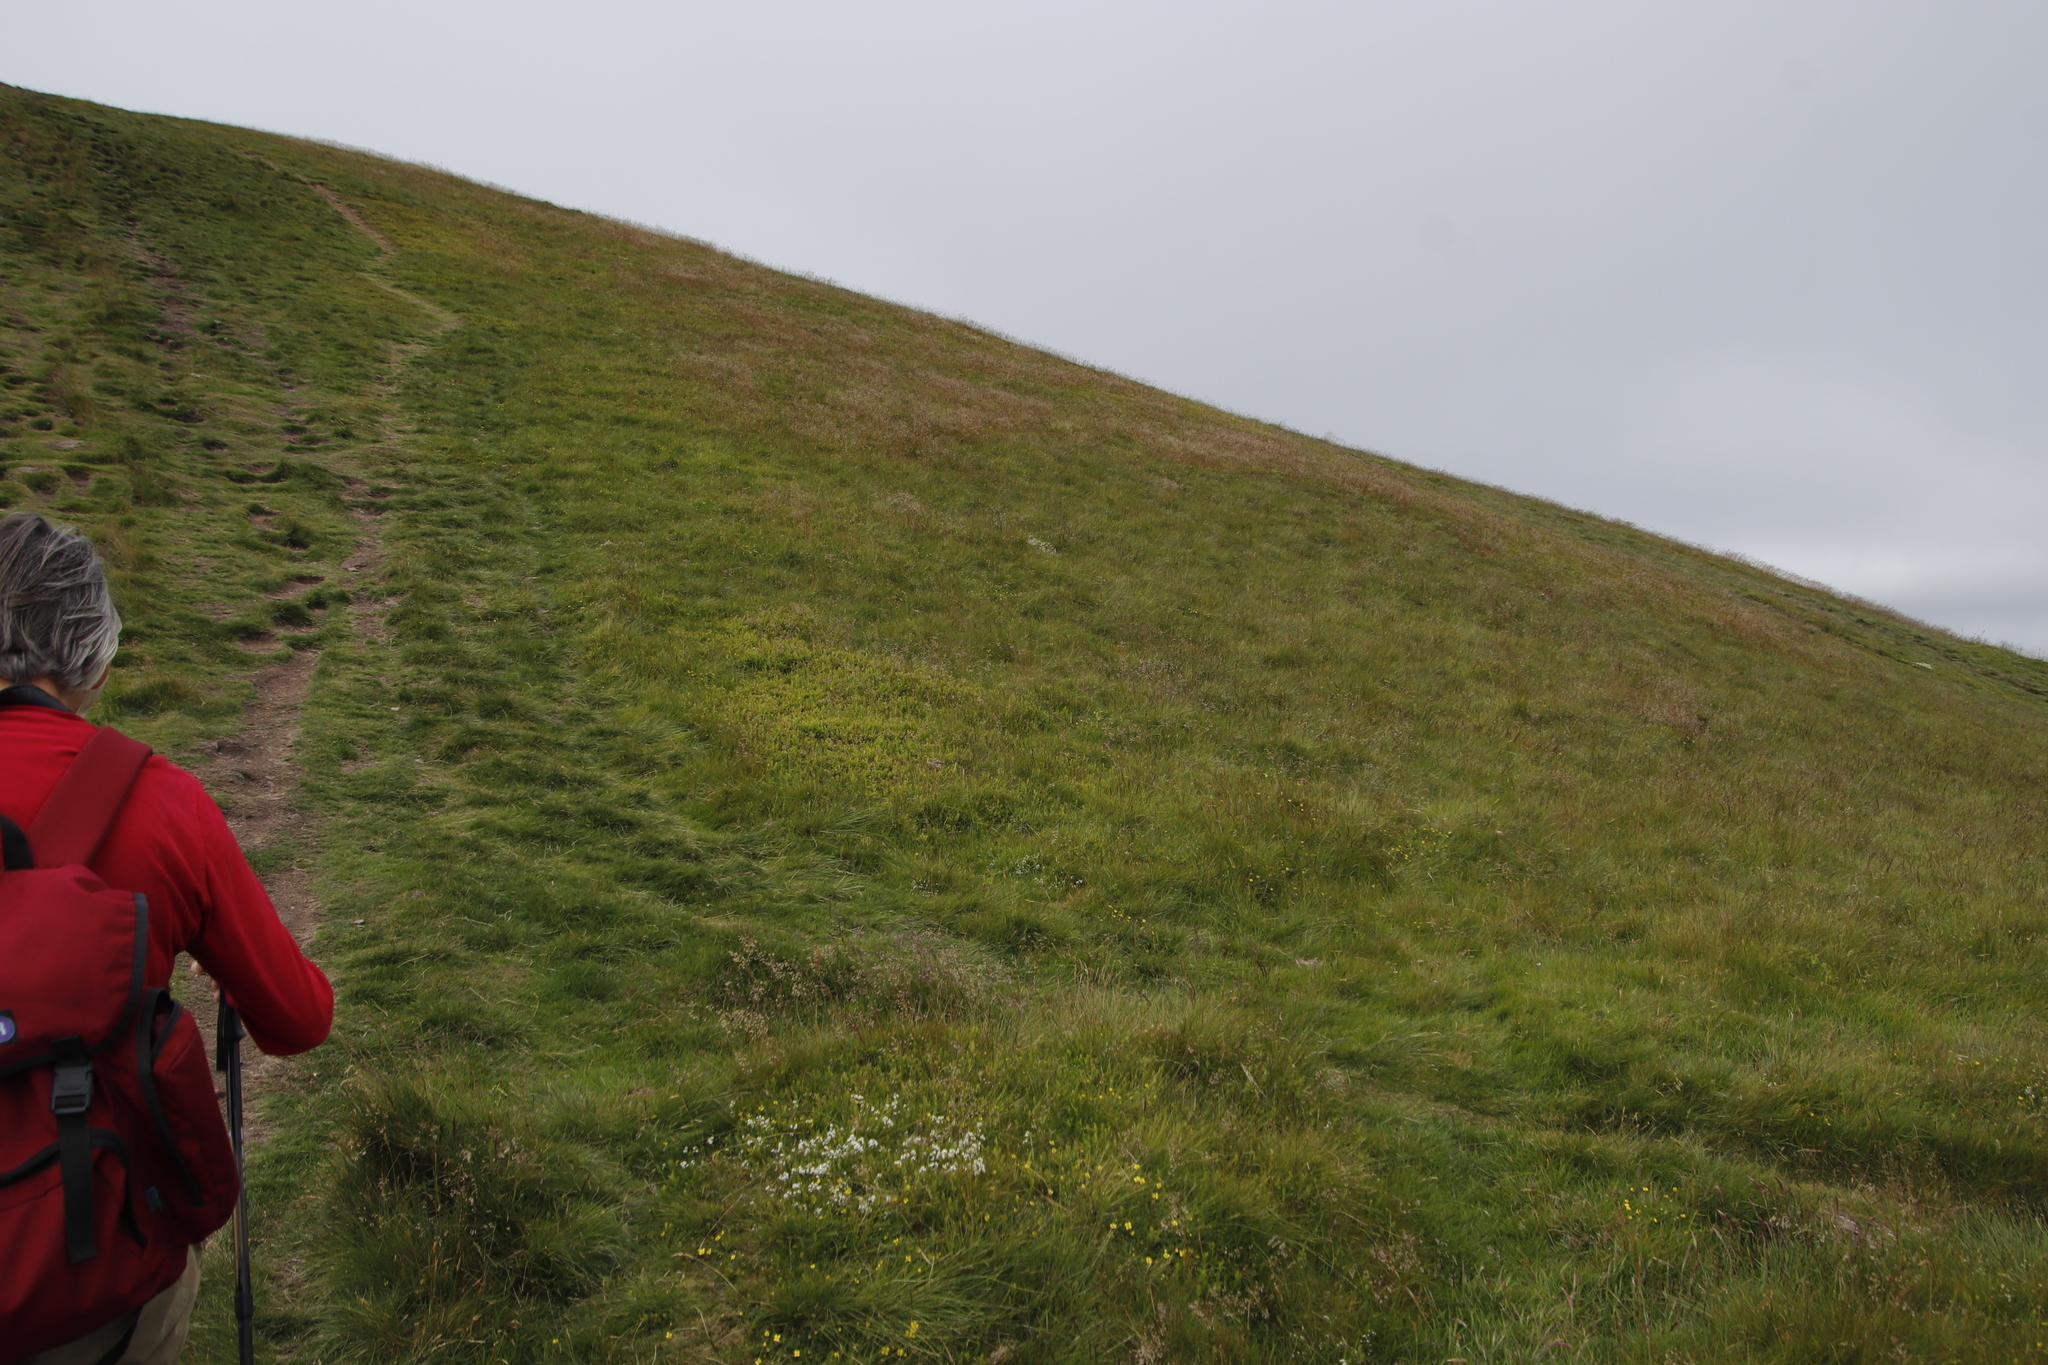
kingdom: Plantae
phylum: Tracheophyta
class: Magnoliopsida
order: Ericales
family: Ericaceae
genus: Vaccinium
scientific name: Vaccinium myrtillus
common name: Bilberry
